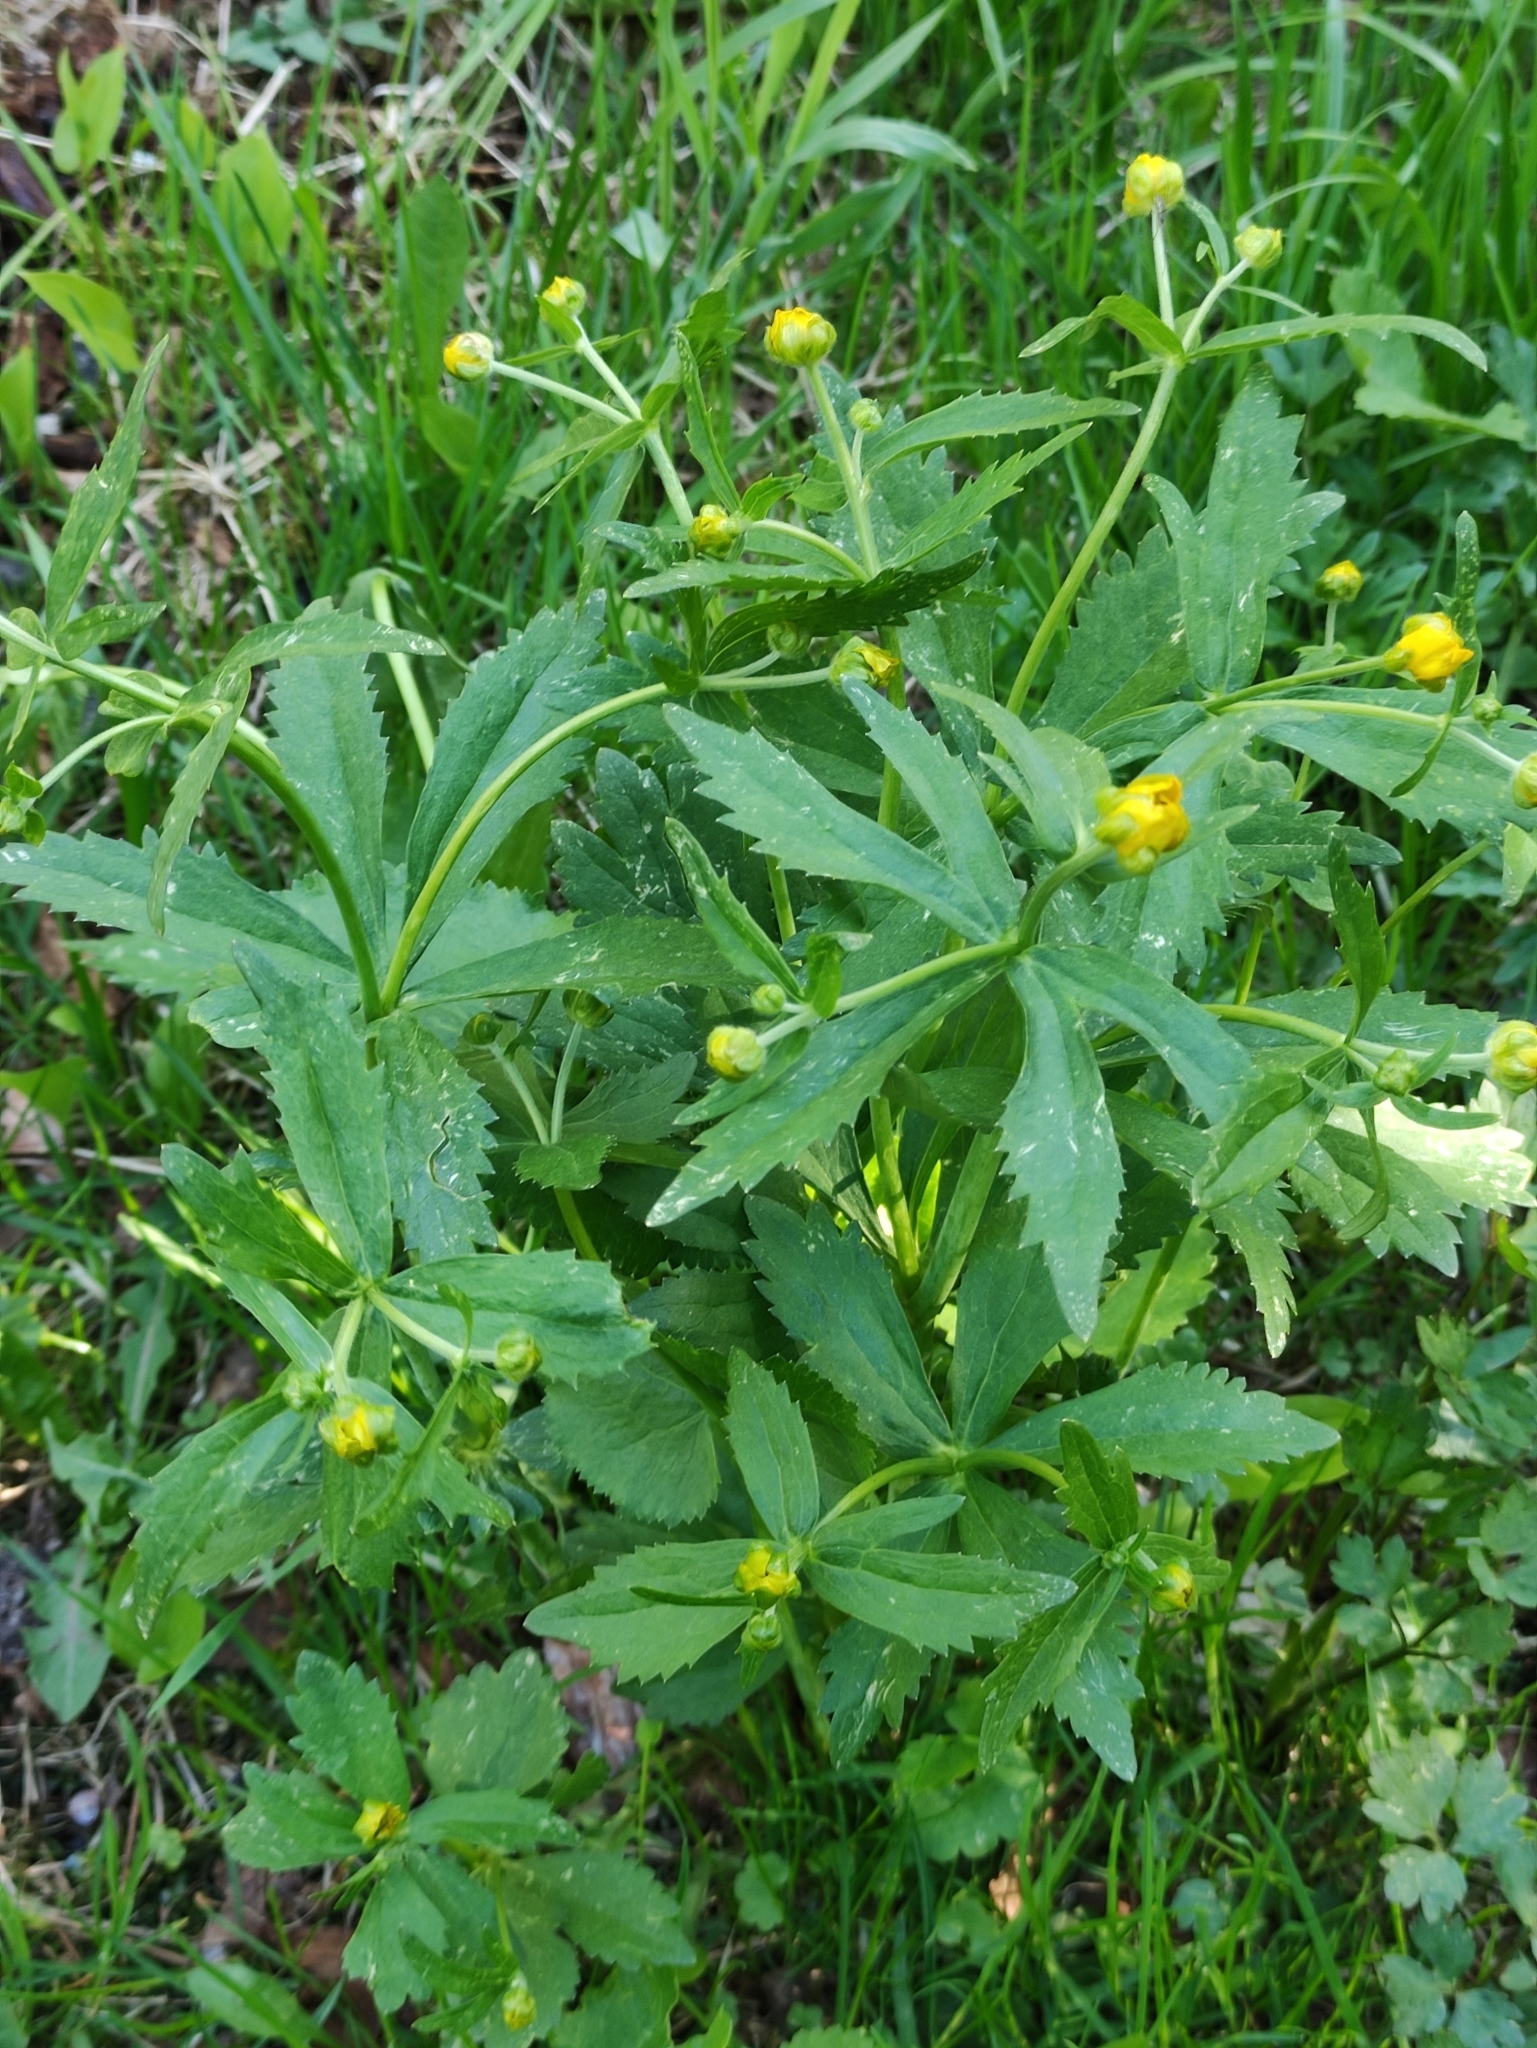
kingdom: Plantae
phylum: Tracheophyta
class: Magnoliopsida
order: Ranunculales
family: Ranunculaceae
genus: Ranunculus
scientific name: Ranunculus cassubicus
